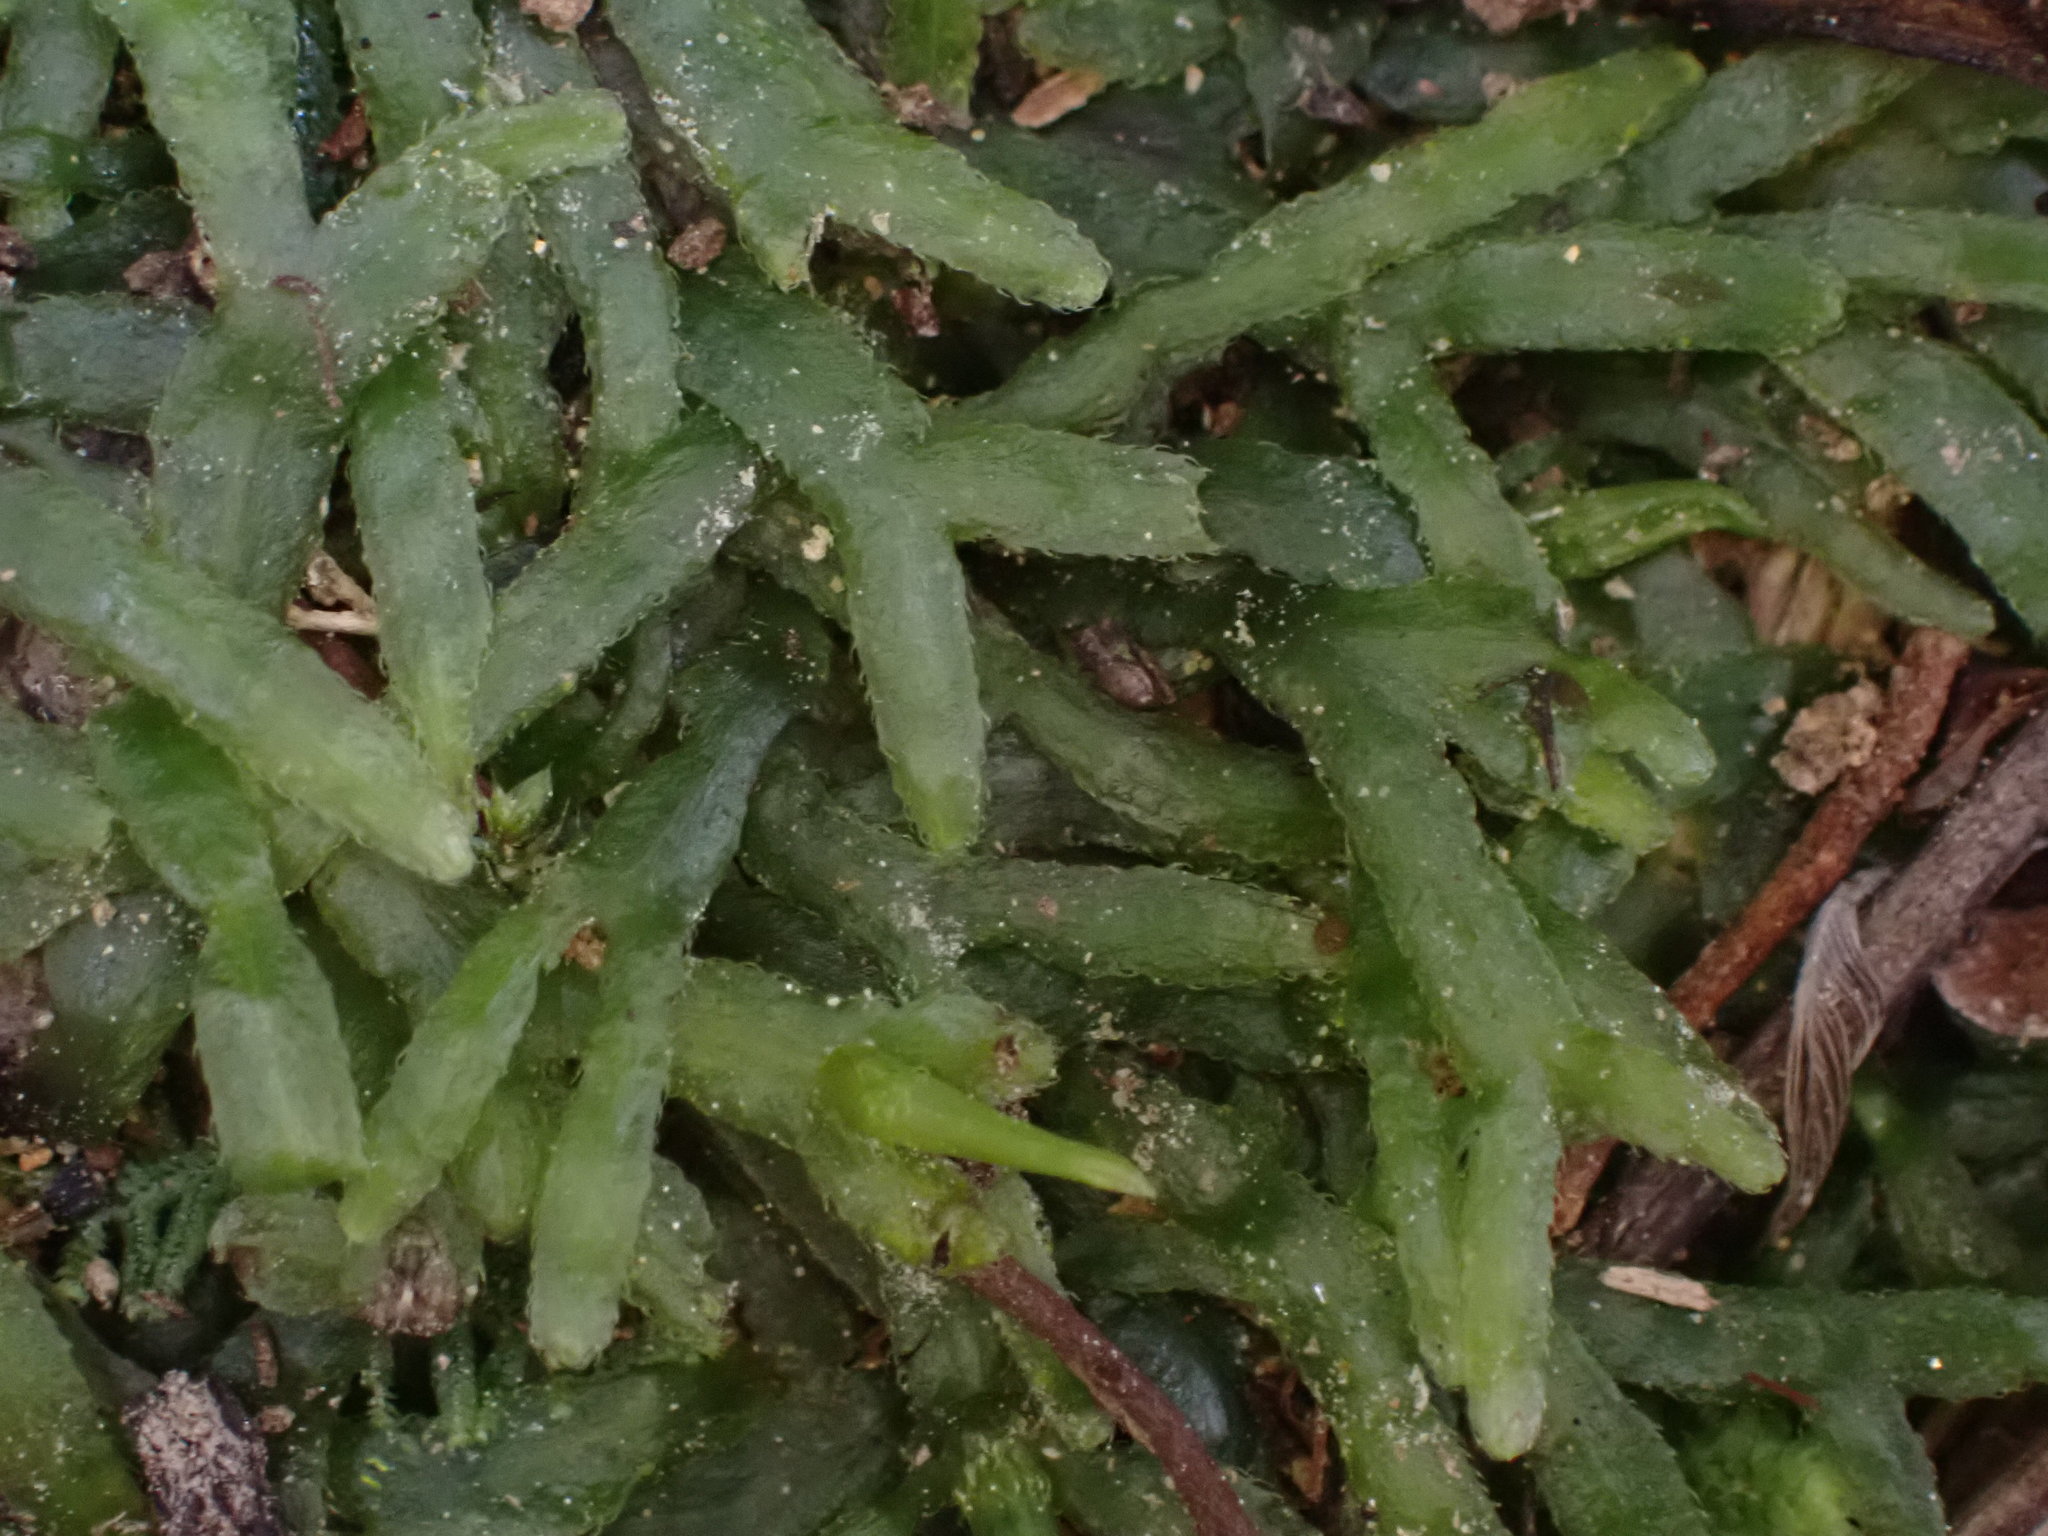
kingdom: Plantae
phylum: Marchantiophyta
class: Jungermanniopsida
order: Pallaviciniales
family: Pallaviciniaceae
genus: Prionothallus
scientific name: Prionothallus xiphoides
